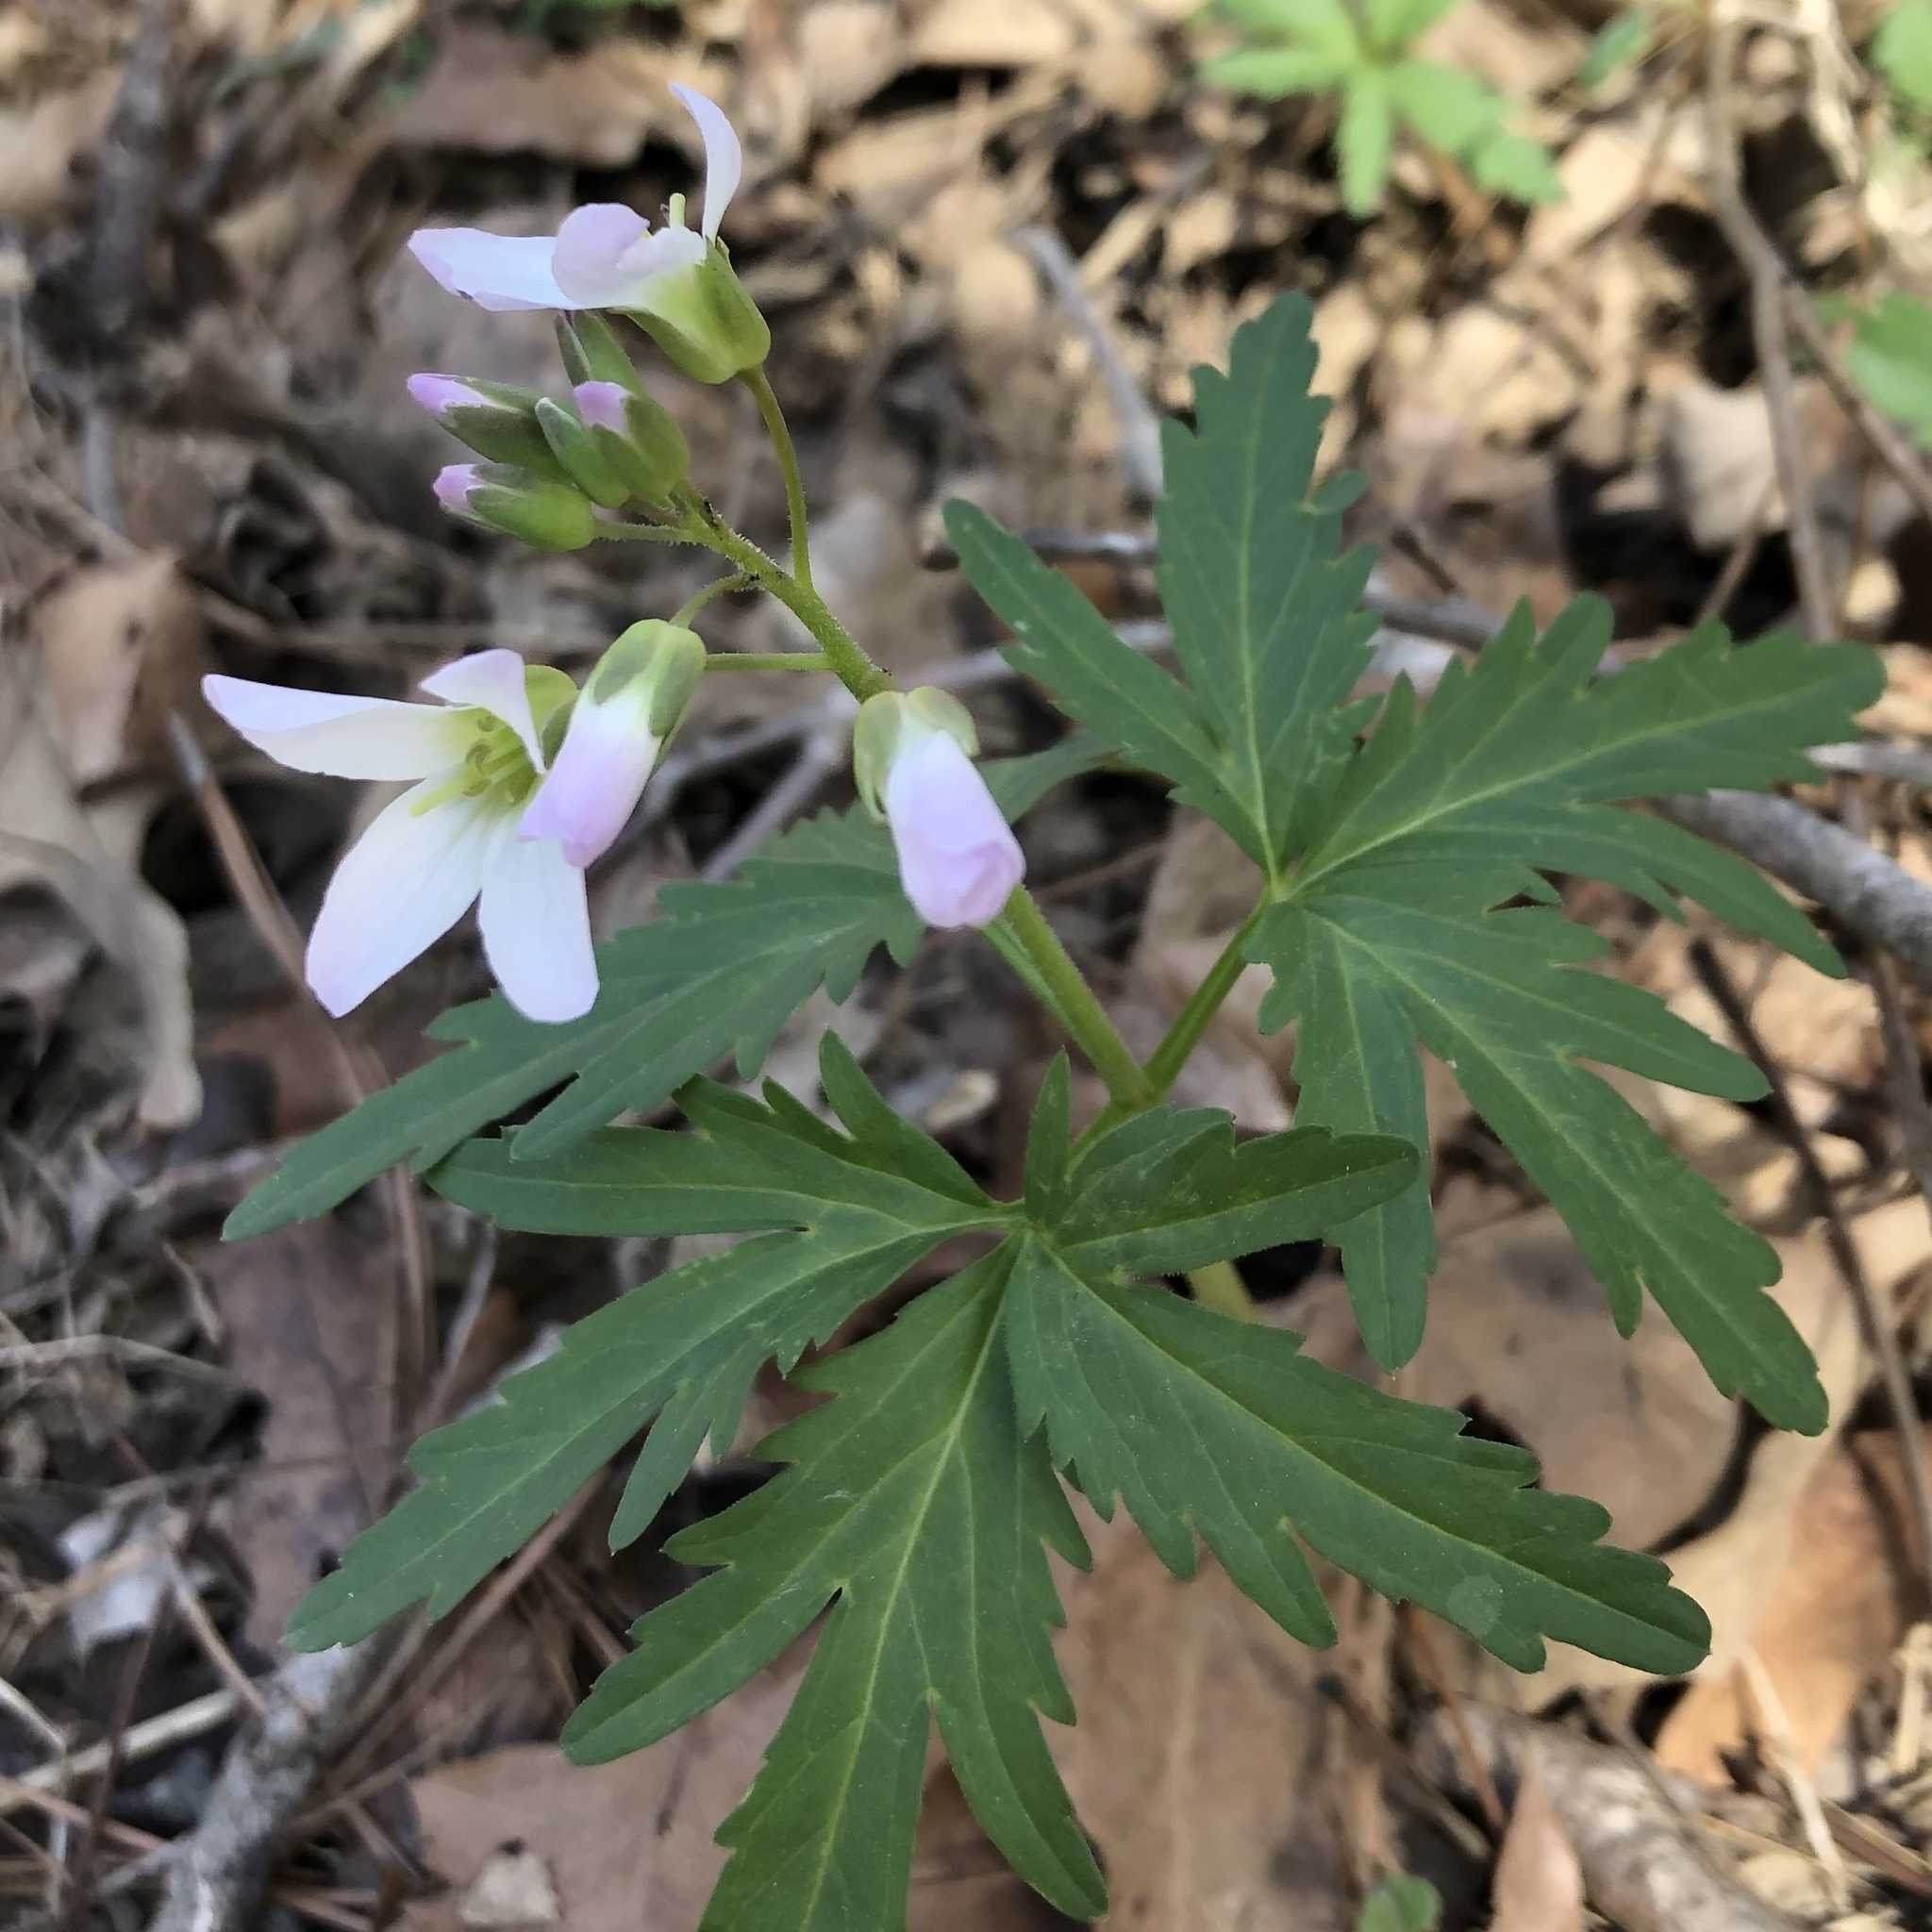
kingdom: Plantae
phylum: Tracheophyta
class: Magnoliopsida
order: Brassicales
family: Brassicaceae
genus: Cardamine
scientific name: Cardamine concatenata
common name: Cut-leaf toothcup
